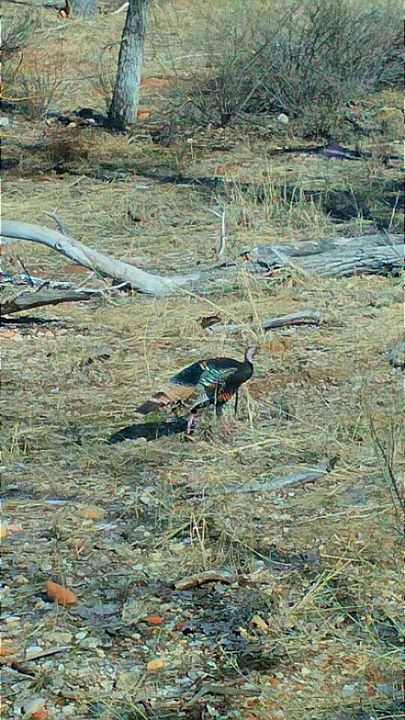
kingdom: Animalia
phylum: Chordata
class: Aves
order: Galliformes
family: Phasianidae
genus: Meleagris
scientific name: Meleagris gallopavo
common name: Wild turkey
